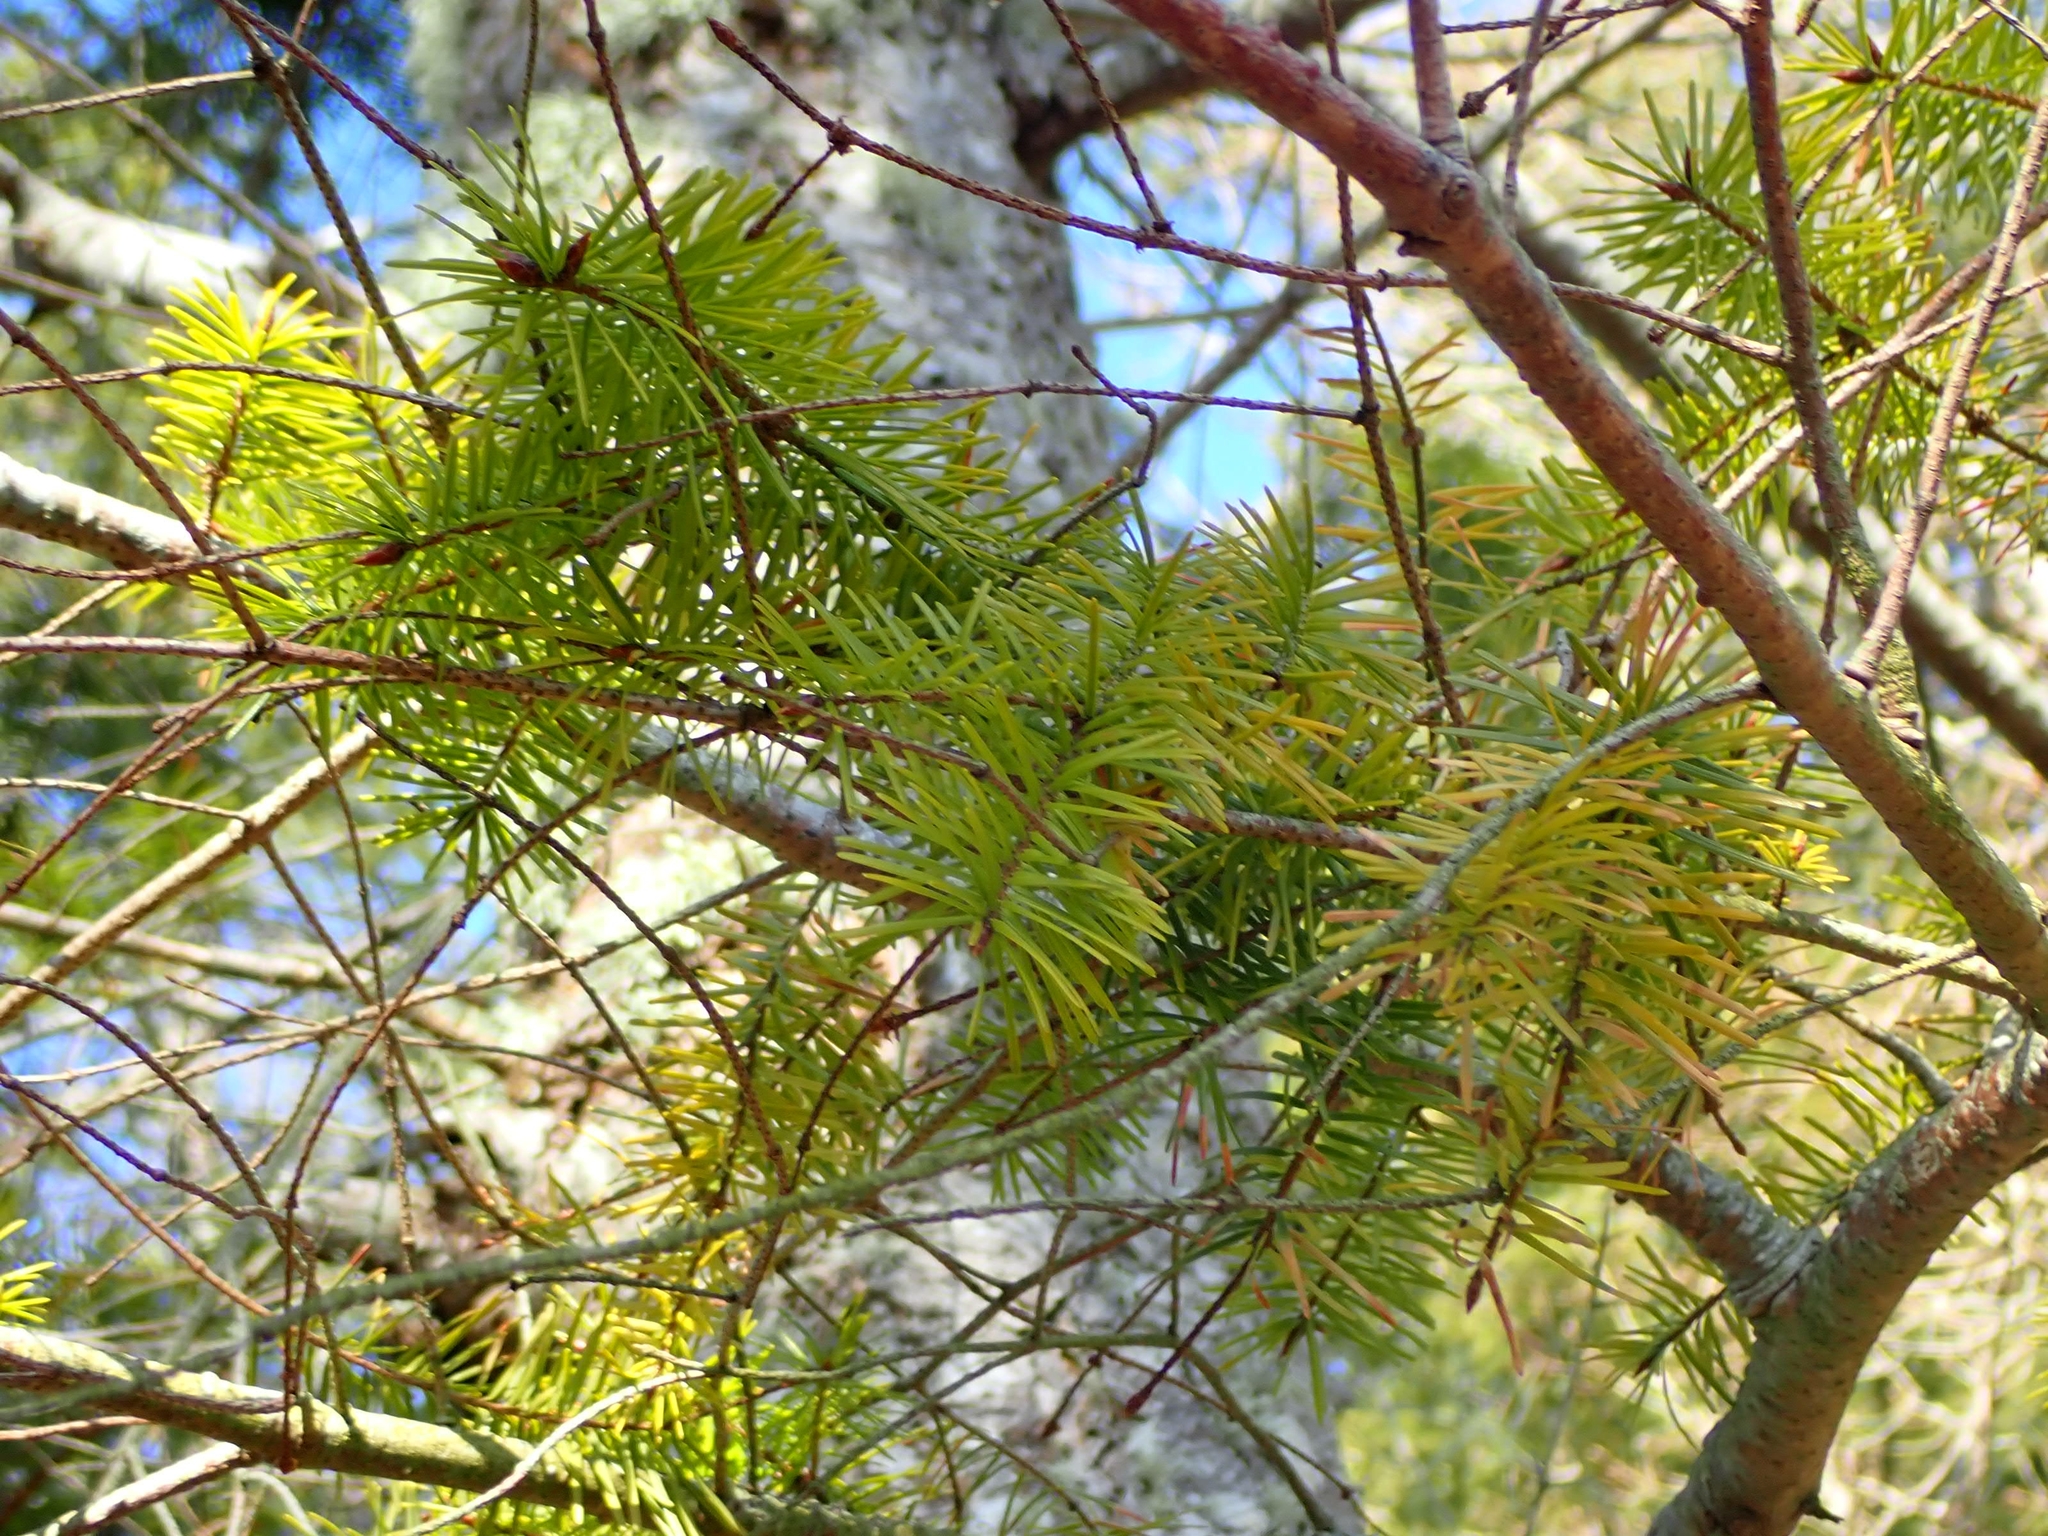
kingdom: Plantae
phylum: Tracheophyta
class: Pinopsida
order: Pinales
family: Pinaceae
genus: Pseudotsuga
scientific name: Pseudotsuga menziesii
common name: Douglas fir
